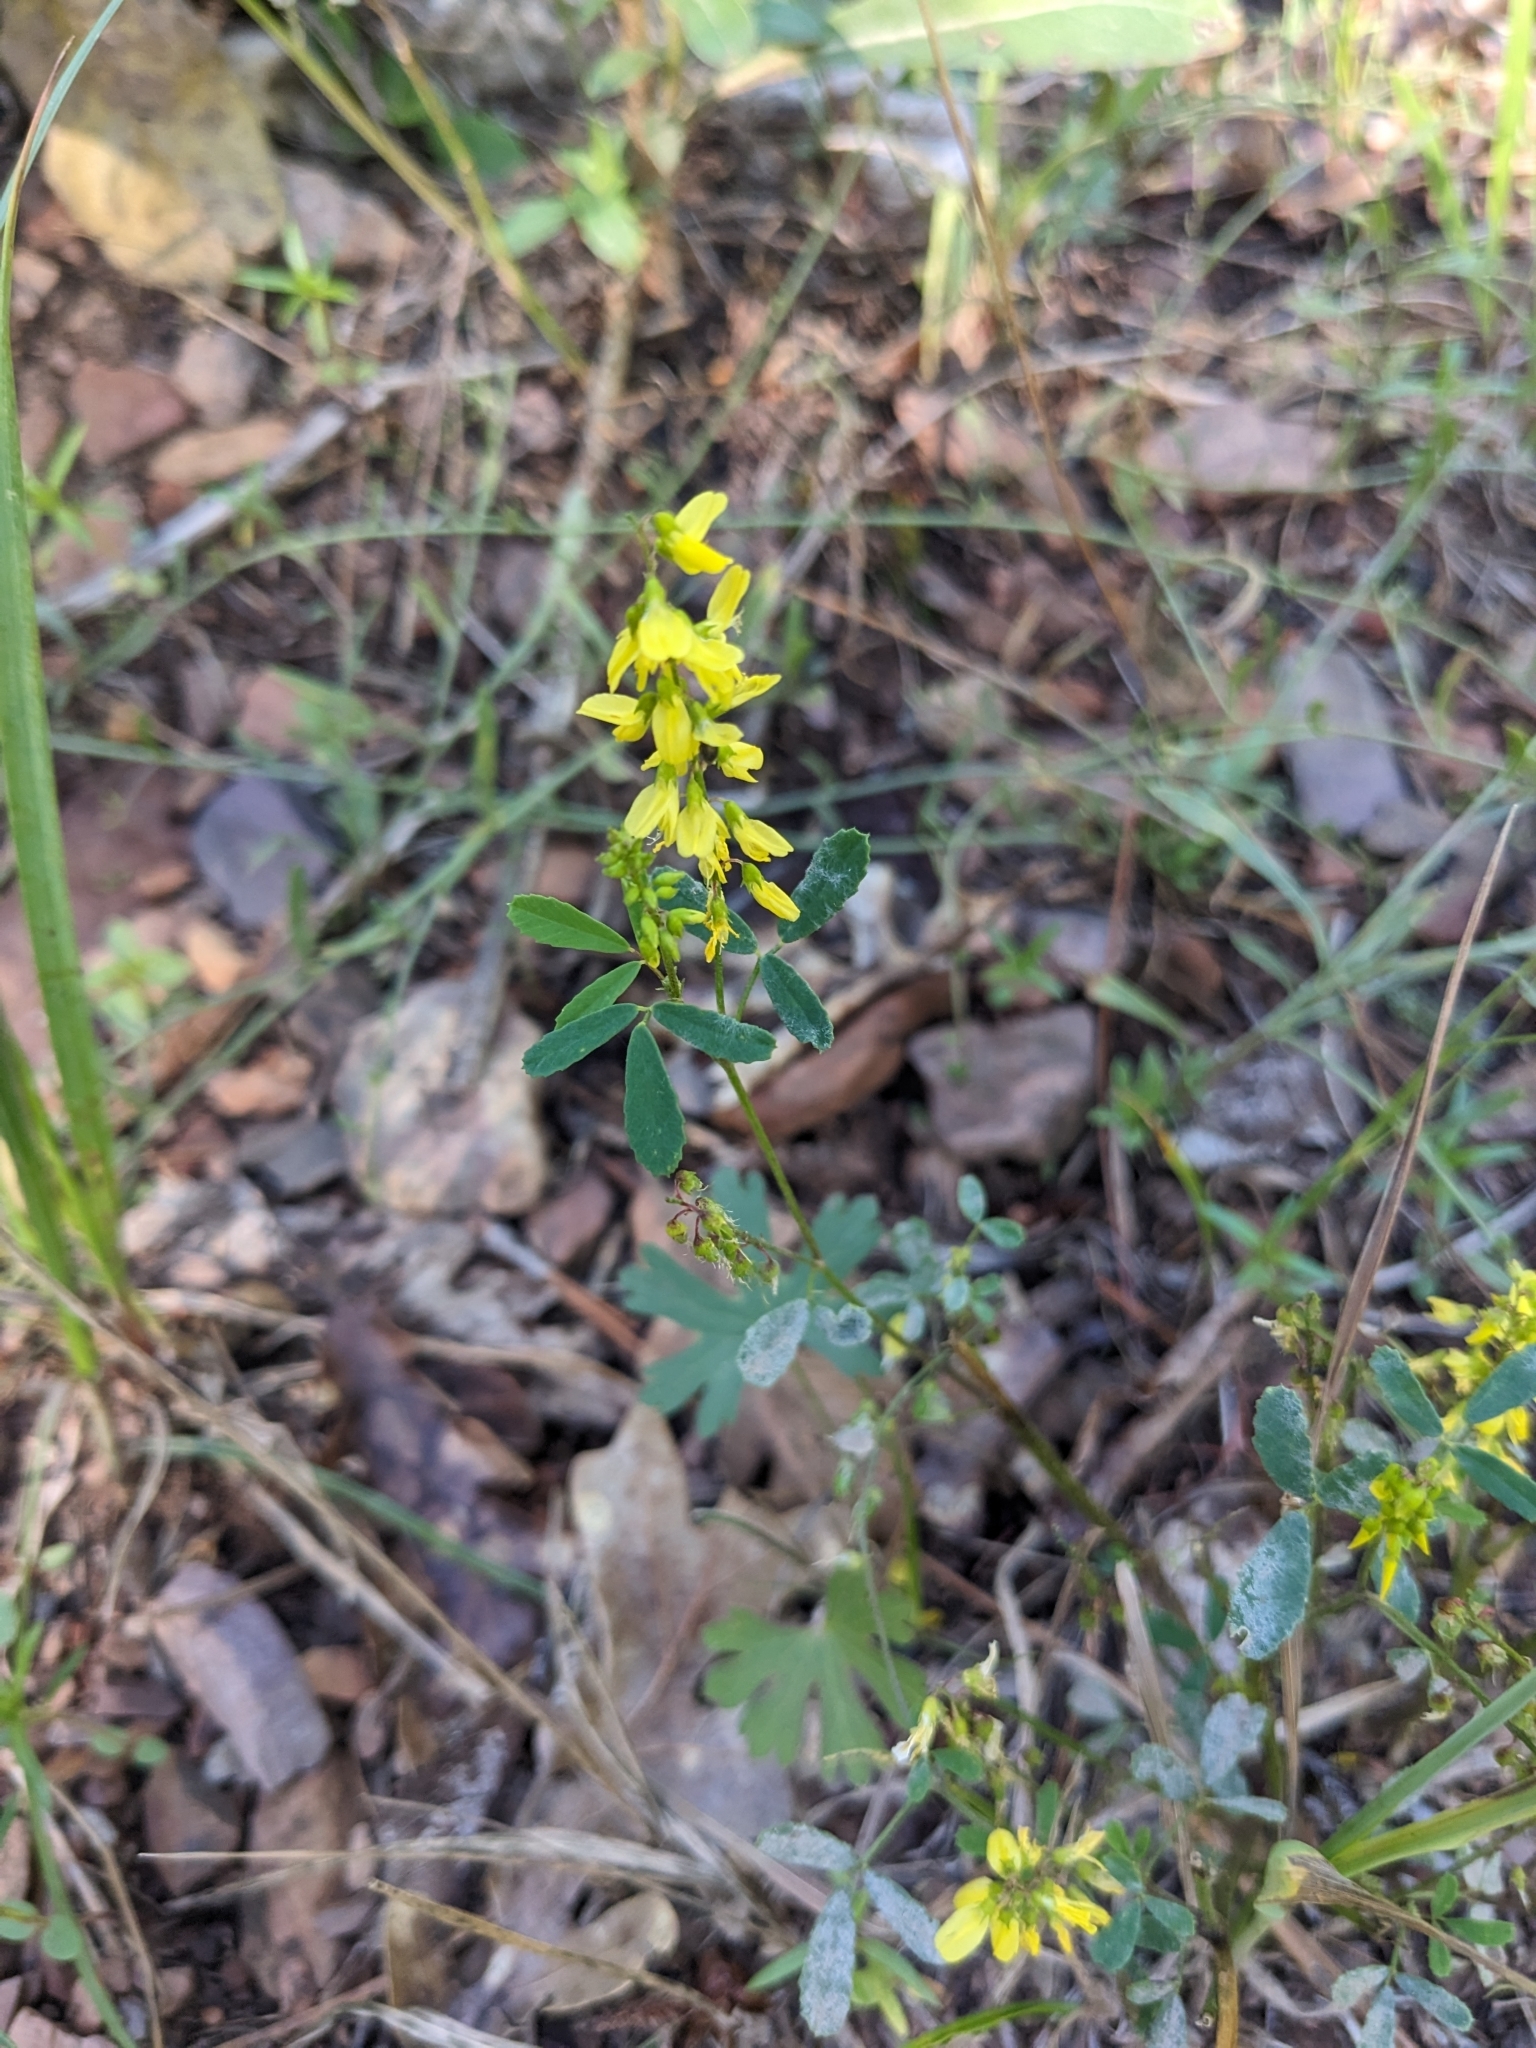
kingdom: Plantae
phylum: Tracheophyta
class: Magnoliopsida
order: Fabales
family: Fabaceae
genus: Melilotus
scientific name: Melilotus officinalis
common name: Sweetclover
